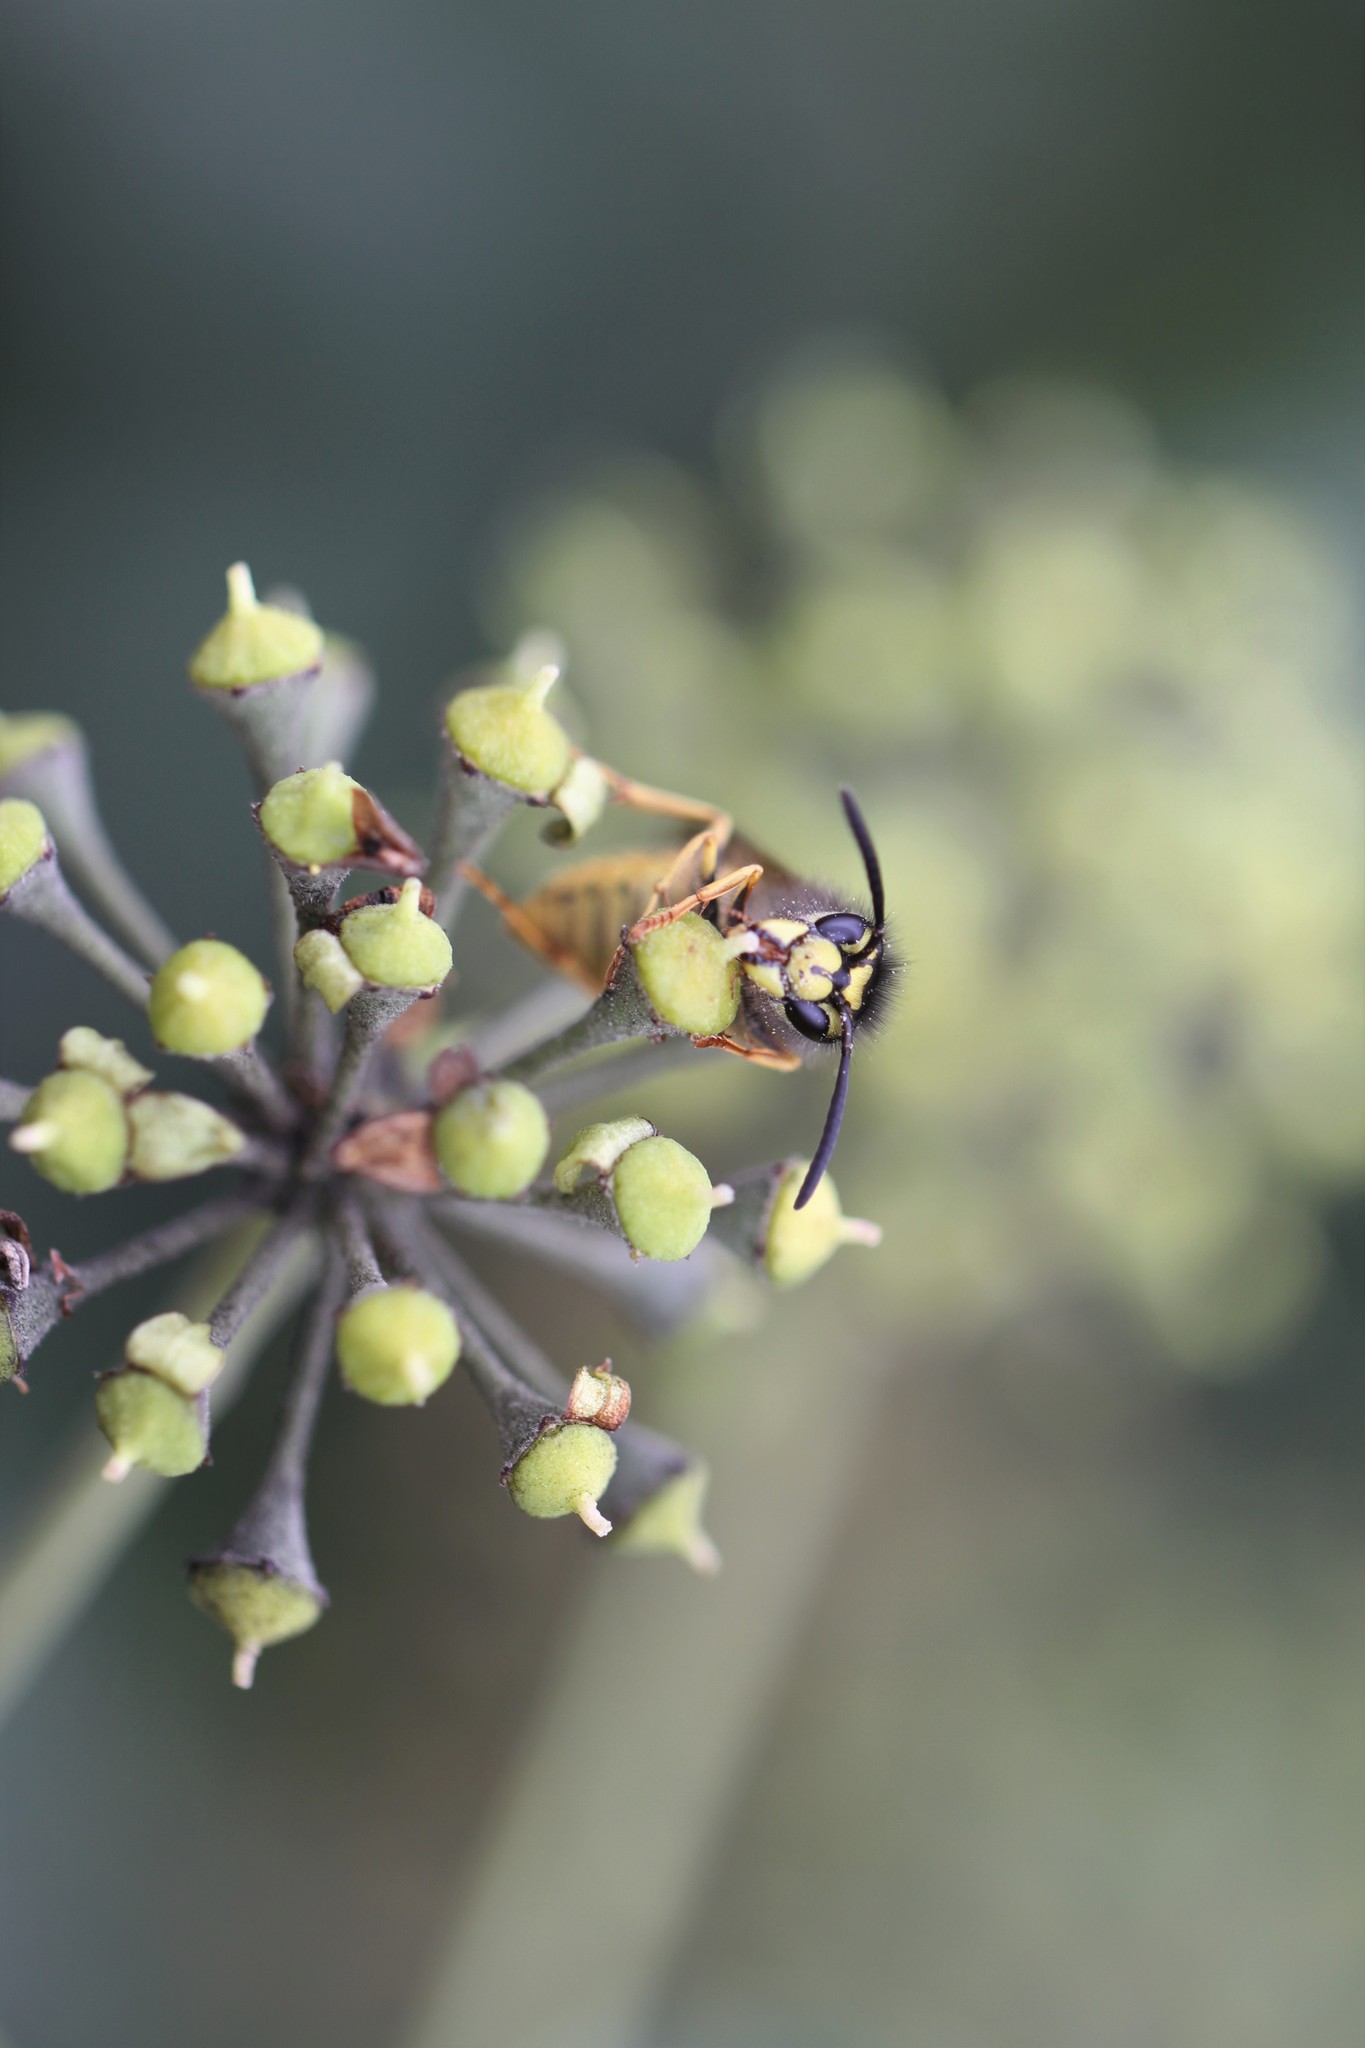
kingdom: Animalia
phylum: Arthropoda
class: Insecta
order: Hymenoptera
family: Vespidae
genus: Vespula
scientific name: Vespula germanica
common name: German wasp
